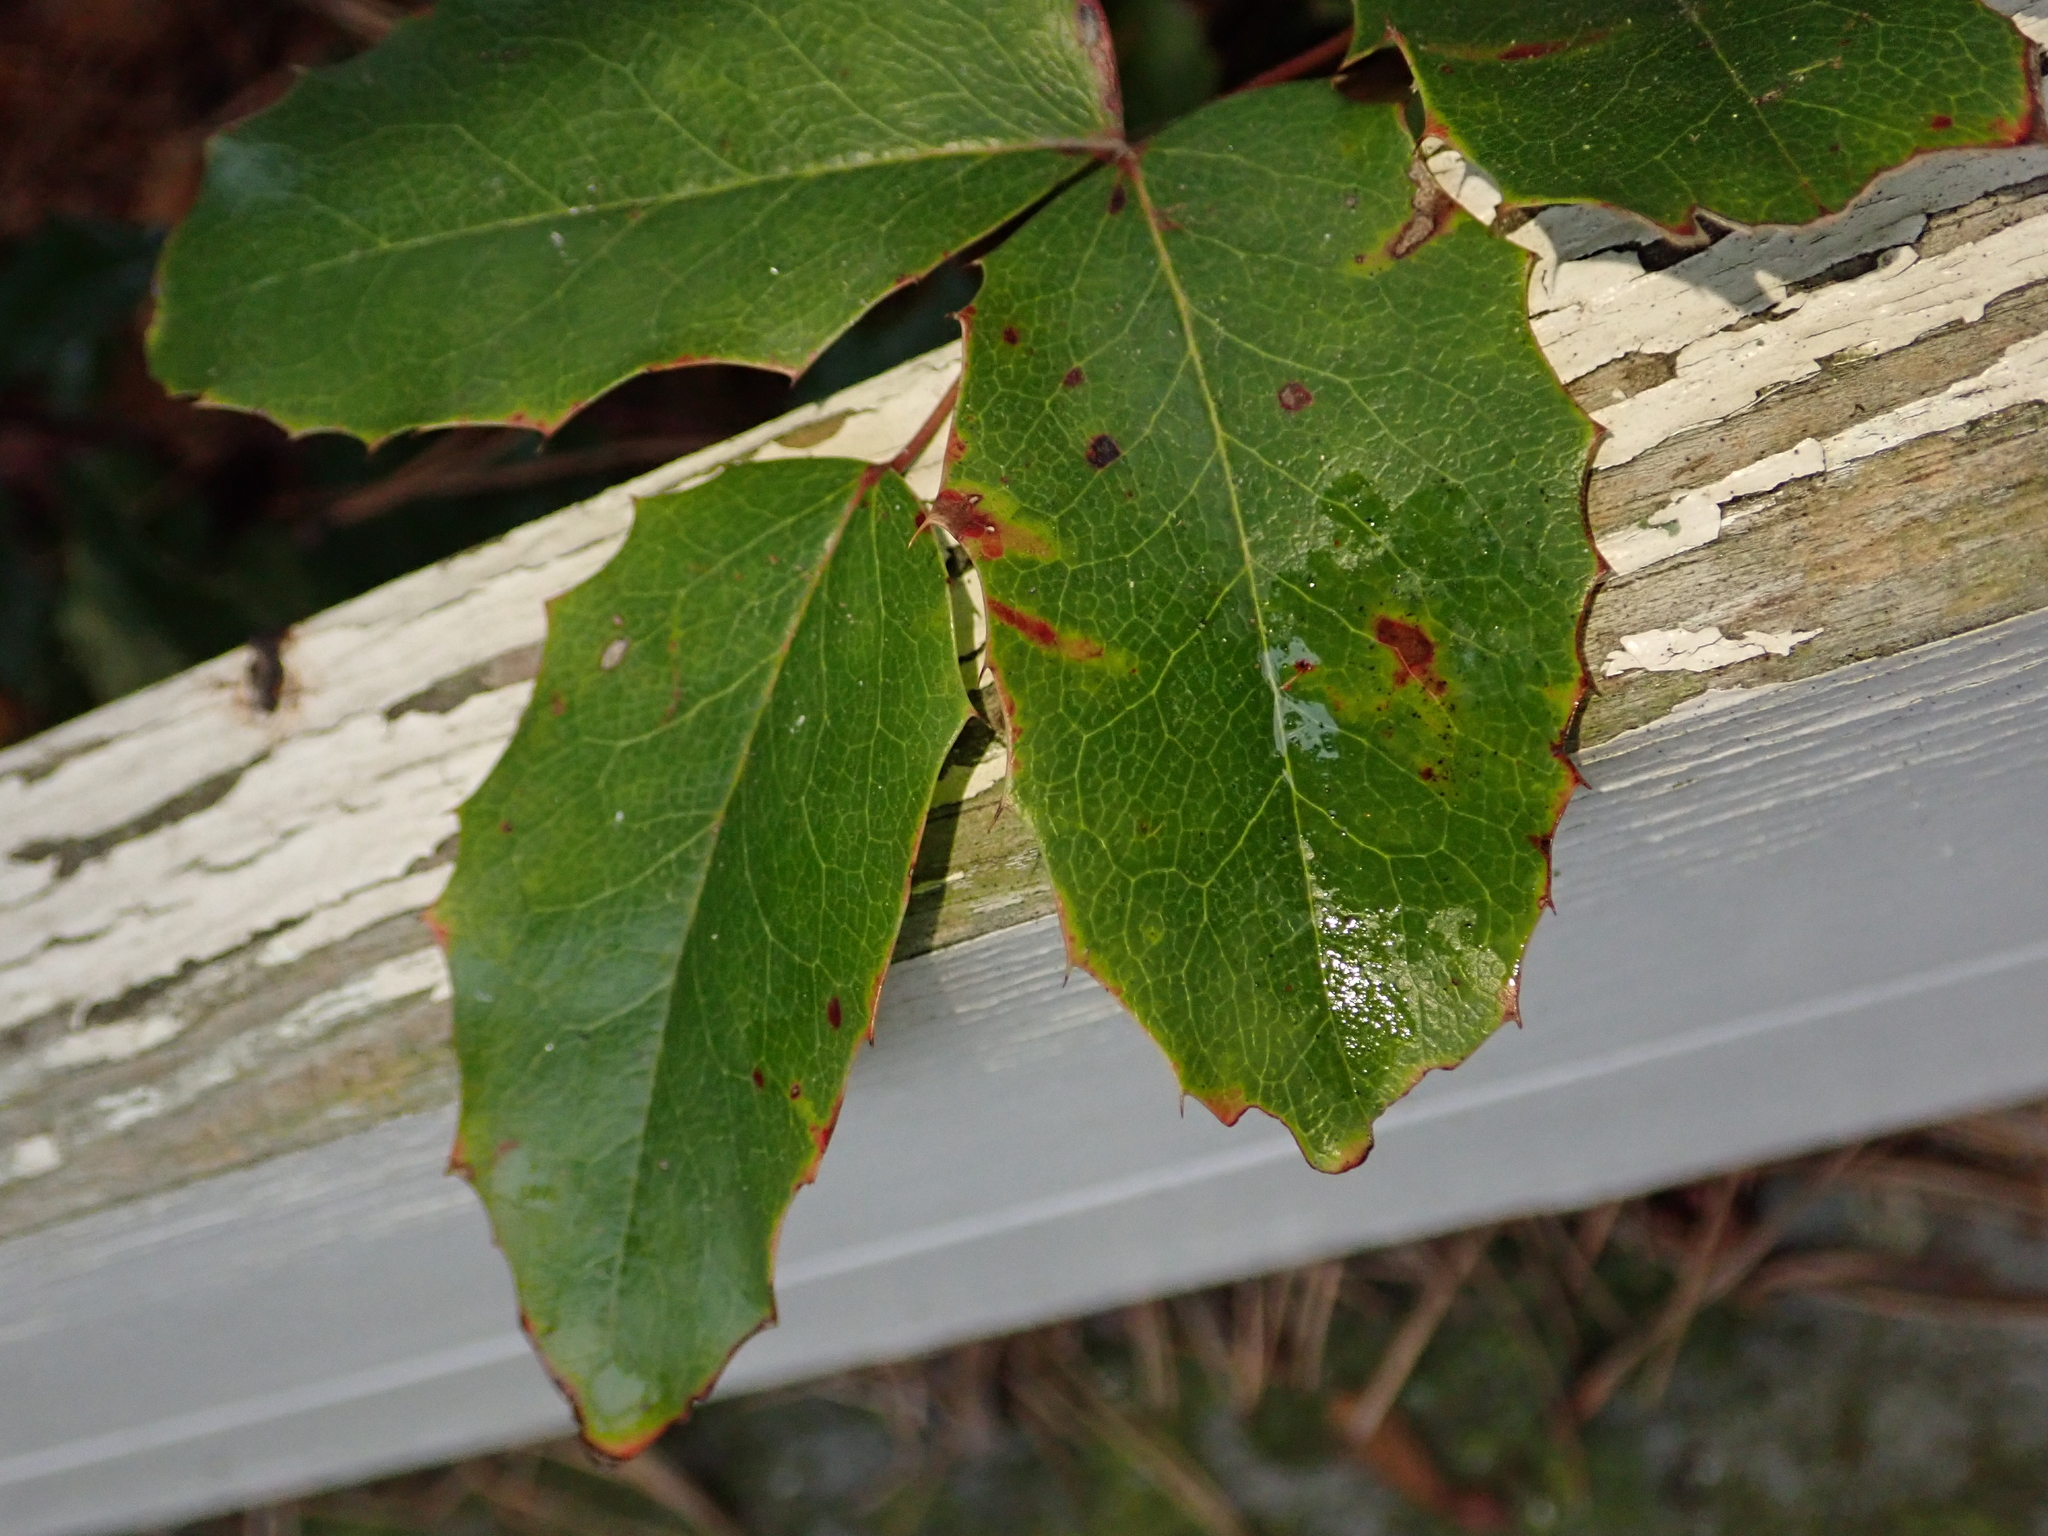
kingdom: Plantae
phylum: Tracheophyta
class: Magnoliopsida
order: Ranunculales
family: Berberidaceae
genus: Mahonia
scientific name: Mahonia aquifolium
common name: Oregon-grape
